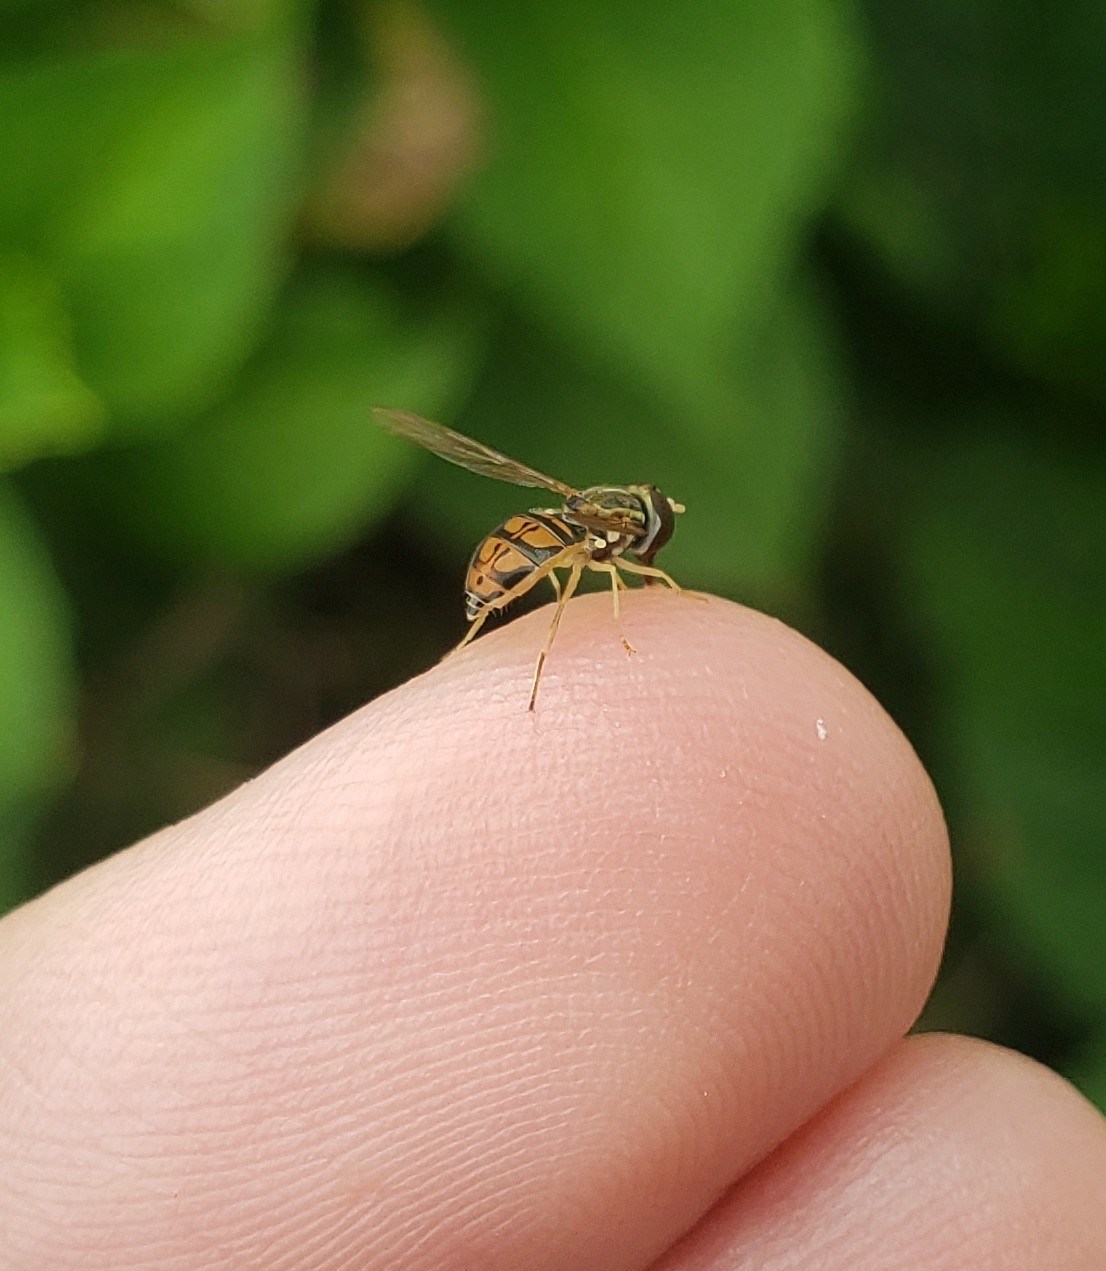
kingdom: Animalia
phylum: Arthropoda
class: Insecta
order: Diptera
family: Syrphidae
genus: Toxomerus
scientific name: Toxomerus marginatus
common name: Syrphid fly
